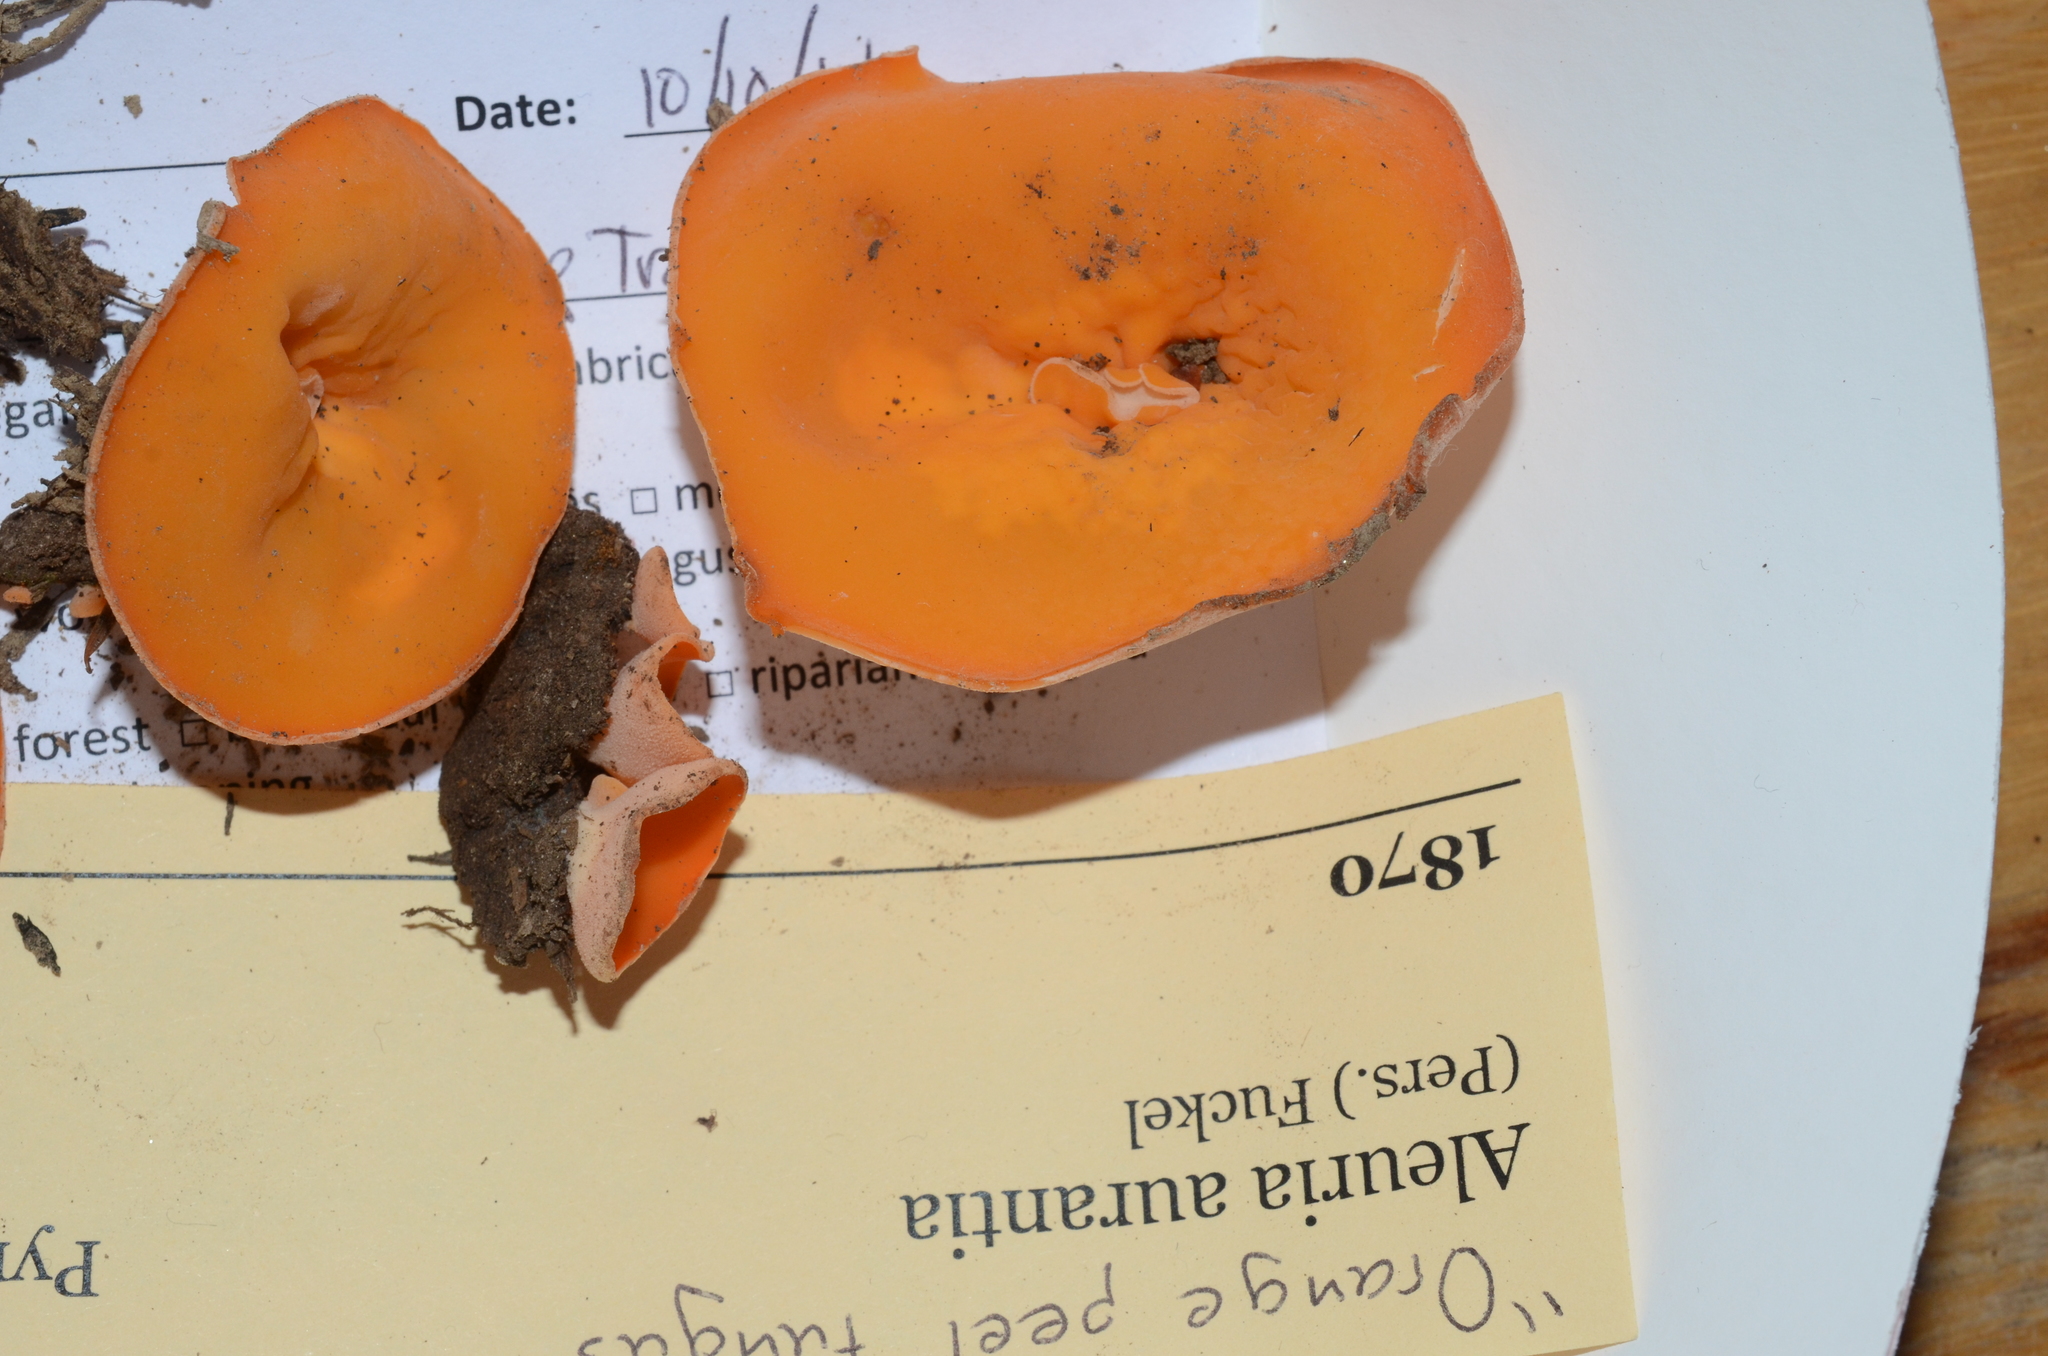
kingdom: Fungi
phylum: Ascomycota
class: Pezizomycetes
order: Pezizales
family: Pyronemataceae
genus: Aleuria
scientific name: Aleuria aurantia
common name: Orange peel fungus
